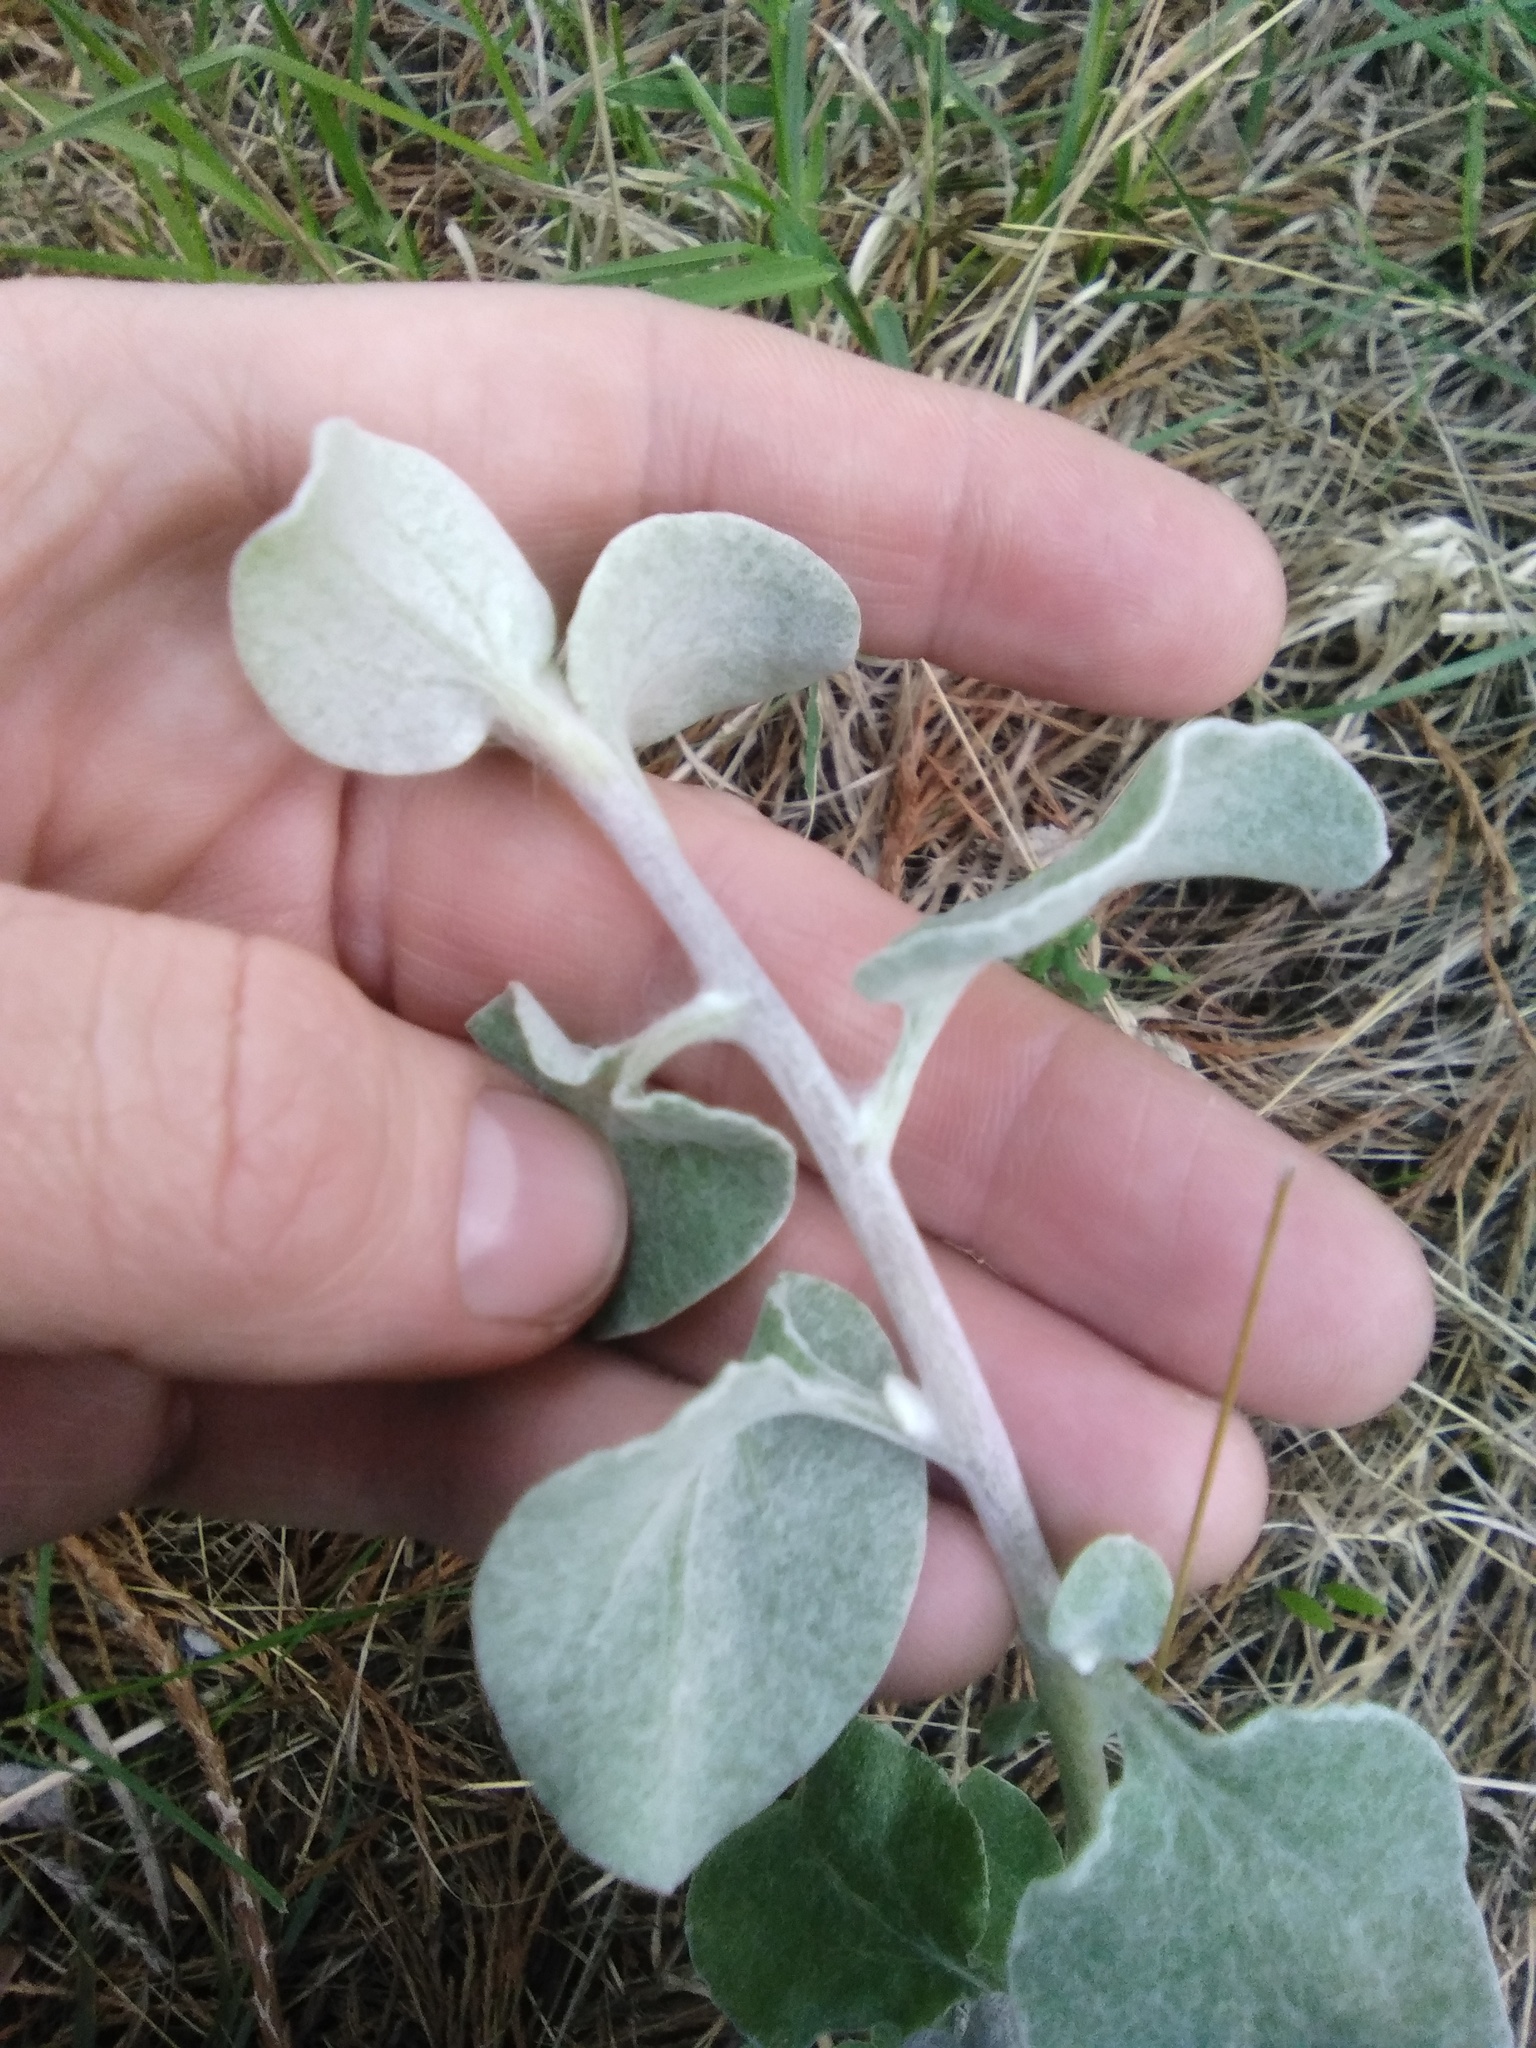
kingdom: Plantae
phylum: Tracheophyta
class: Magnoliopsida
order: Asterales
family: Asteraceae
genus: Helichrysum
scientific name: Helichrysum petiolare
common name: Licorice-plant
